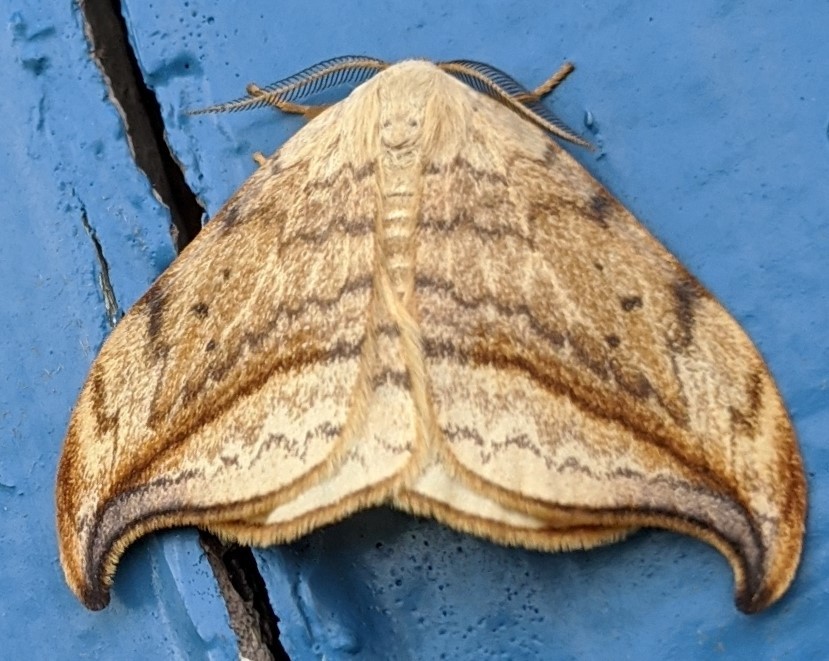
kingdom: Animalia
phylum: Arthropoda
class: Insecta
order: Lepidoptera
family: Drepanidae
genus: Drepana
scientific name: Drepana arcuata
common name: Arched hooktip moth
